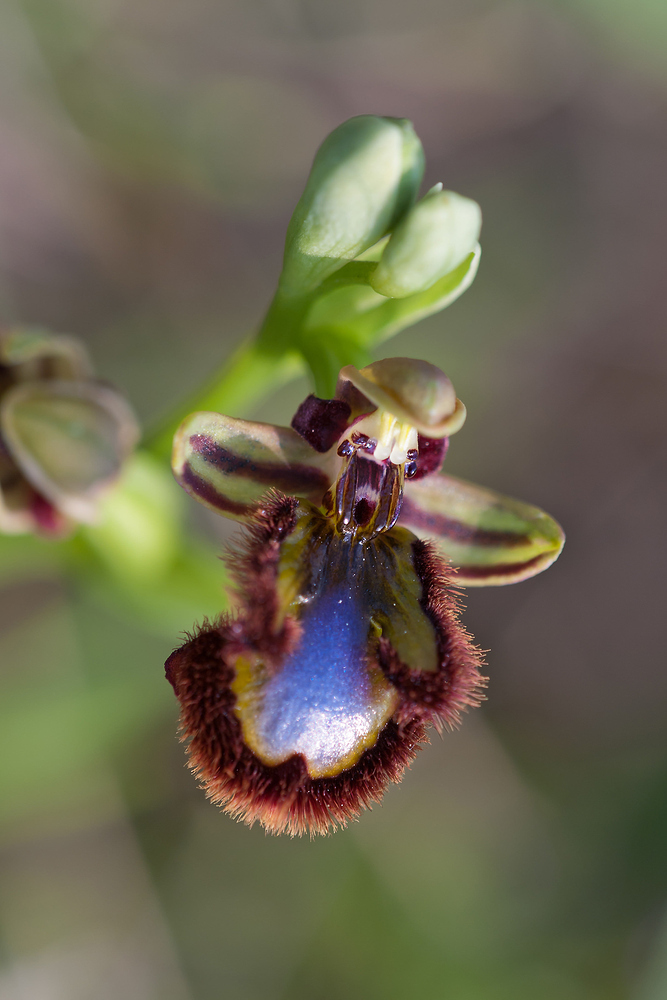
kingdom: Plantae
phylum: Tracheophyta
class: Liliopsida
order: Asparagales
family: Orchidaceae
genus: Ophrys
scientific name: Ophrys speculum
